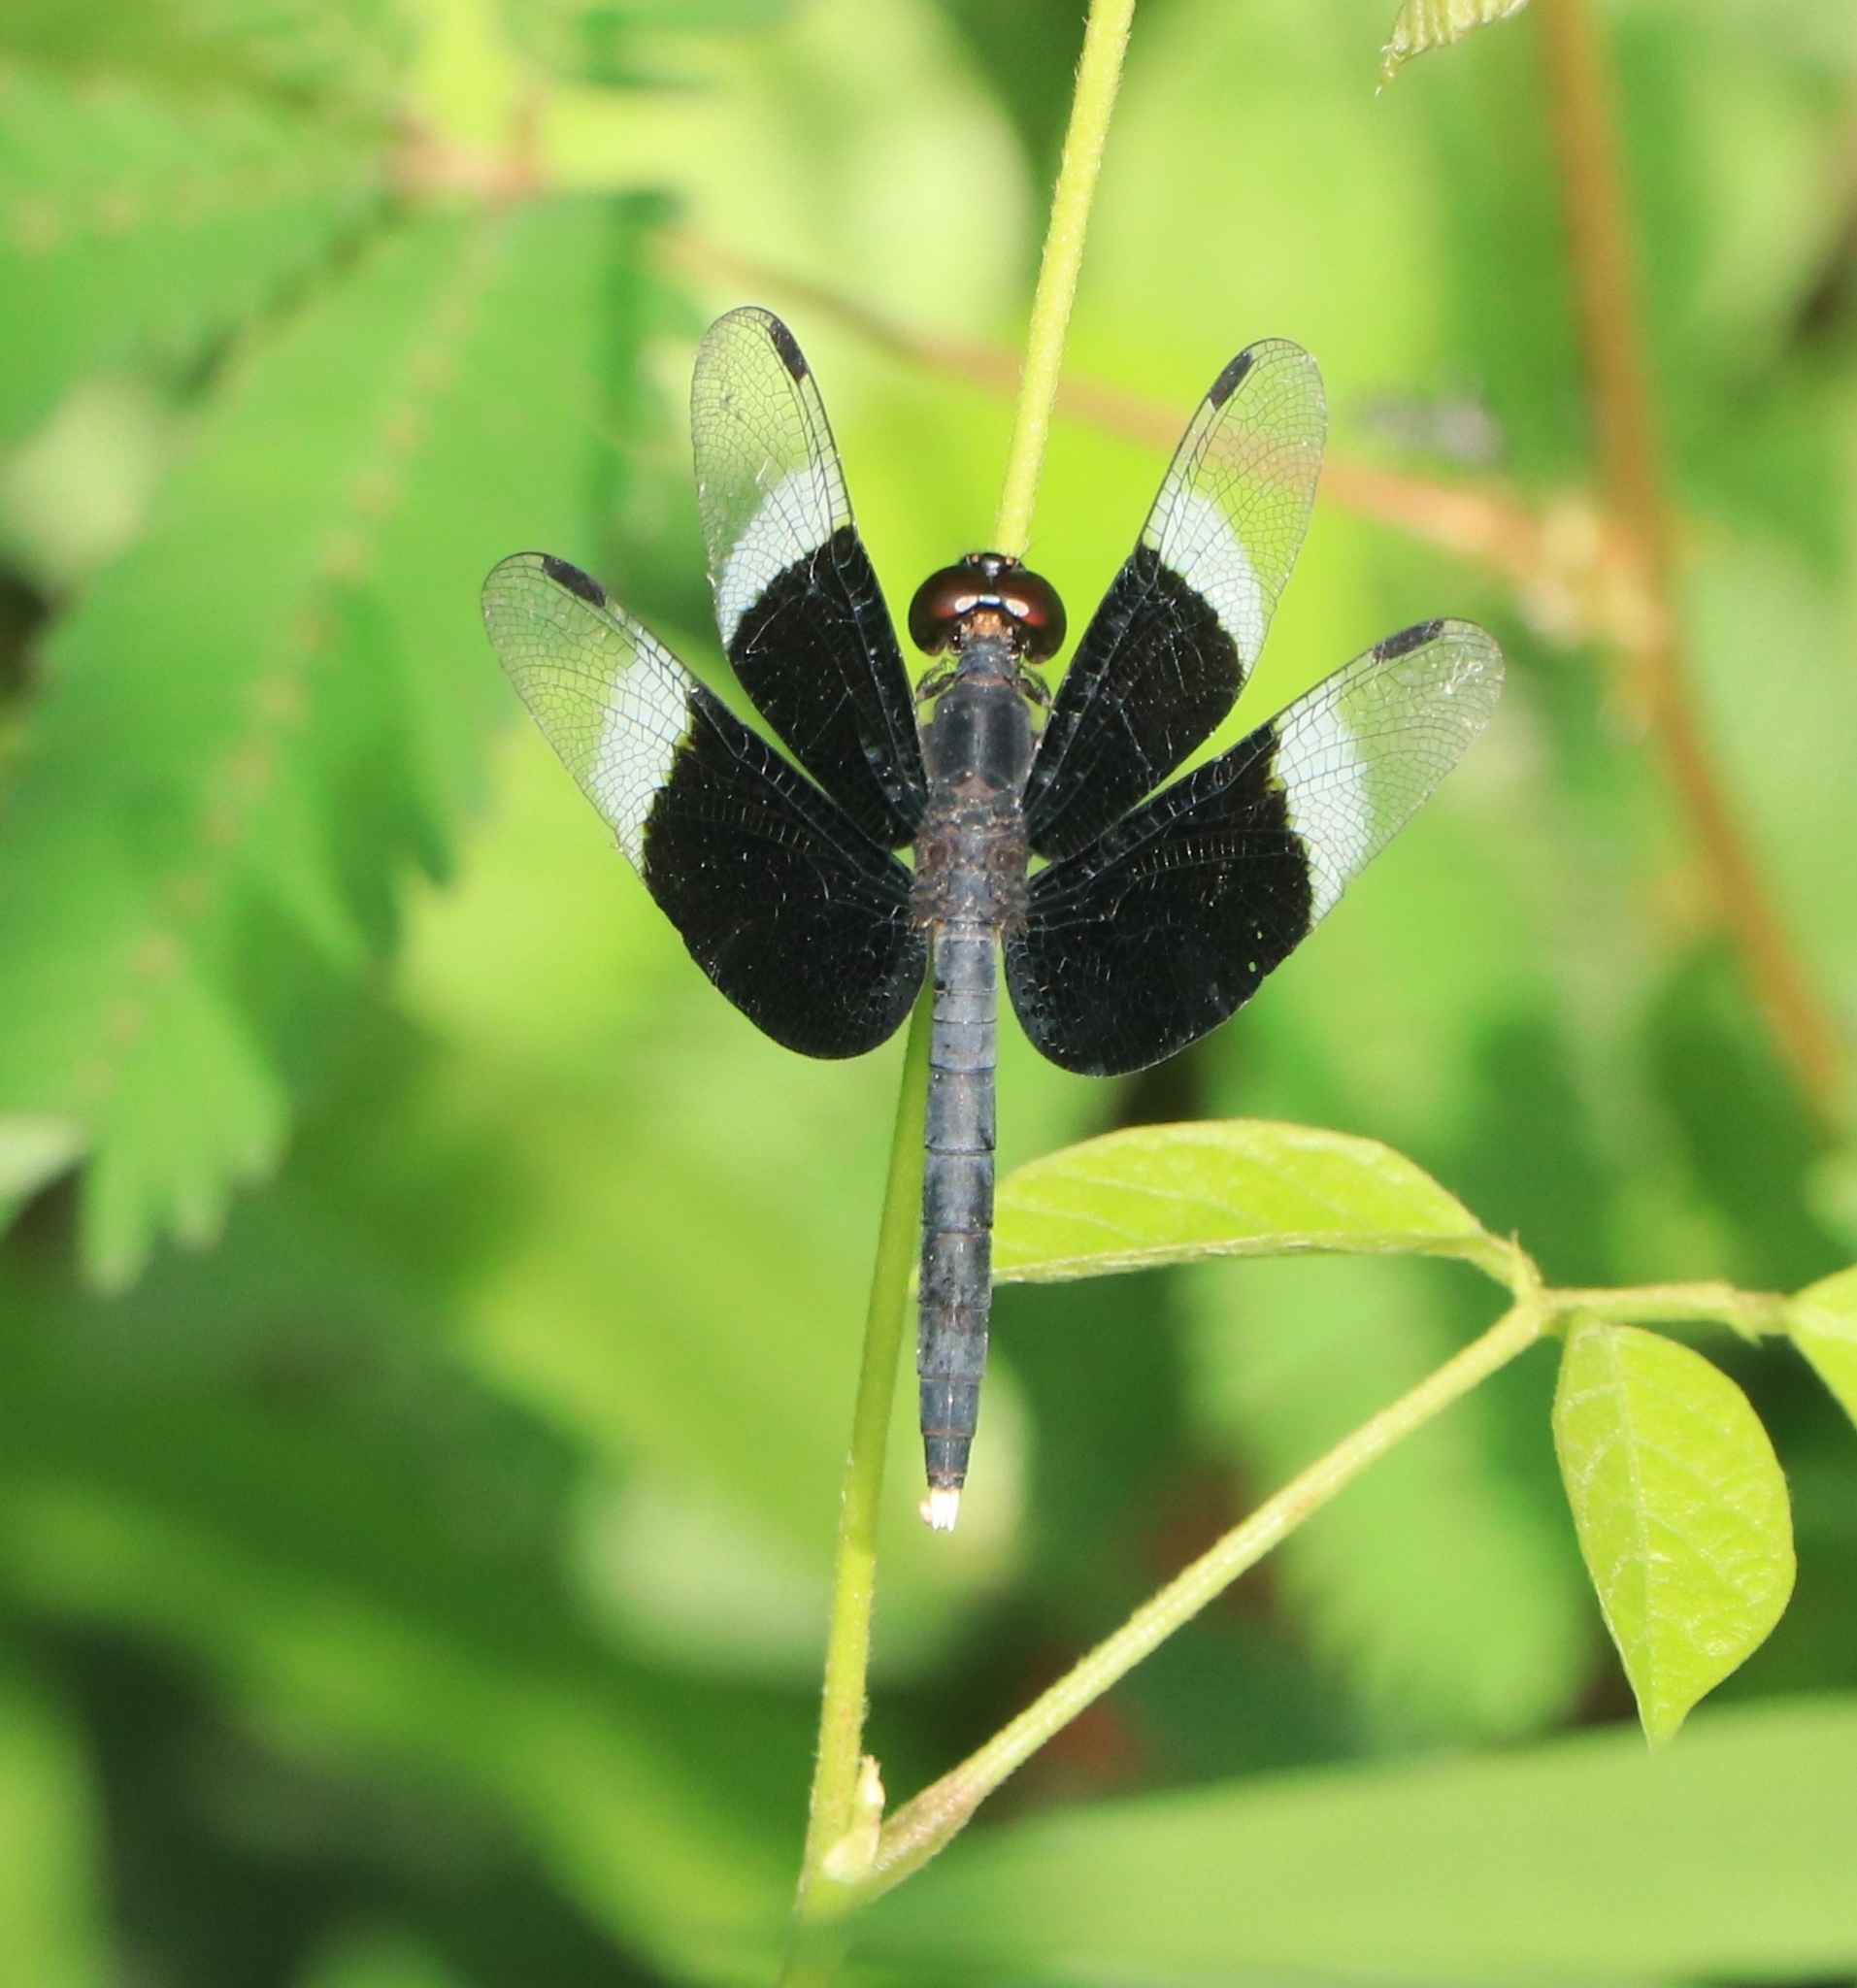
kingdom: Animalia
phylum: Arthropoda
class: Insecta
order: Odonata
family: Libellulidae
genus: Neurothemis
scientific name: Neurothemis tullia
